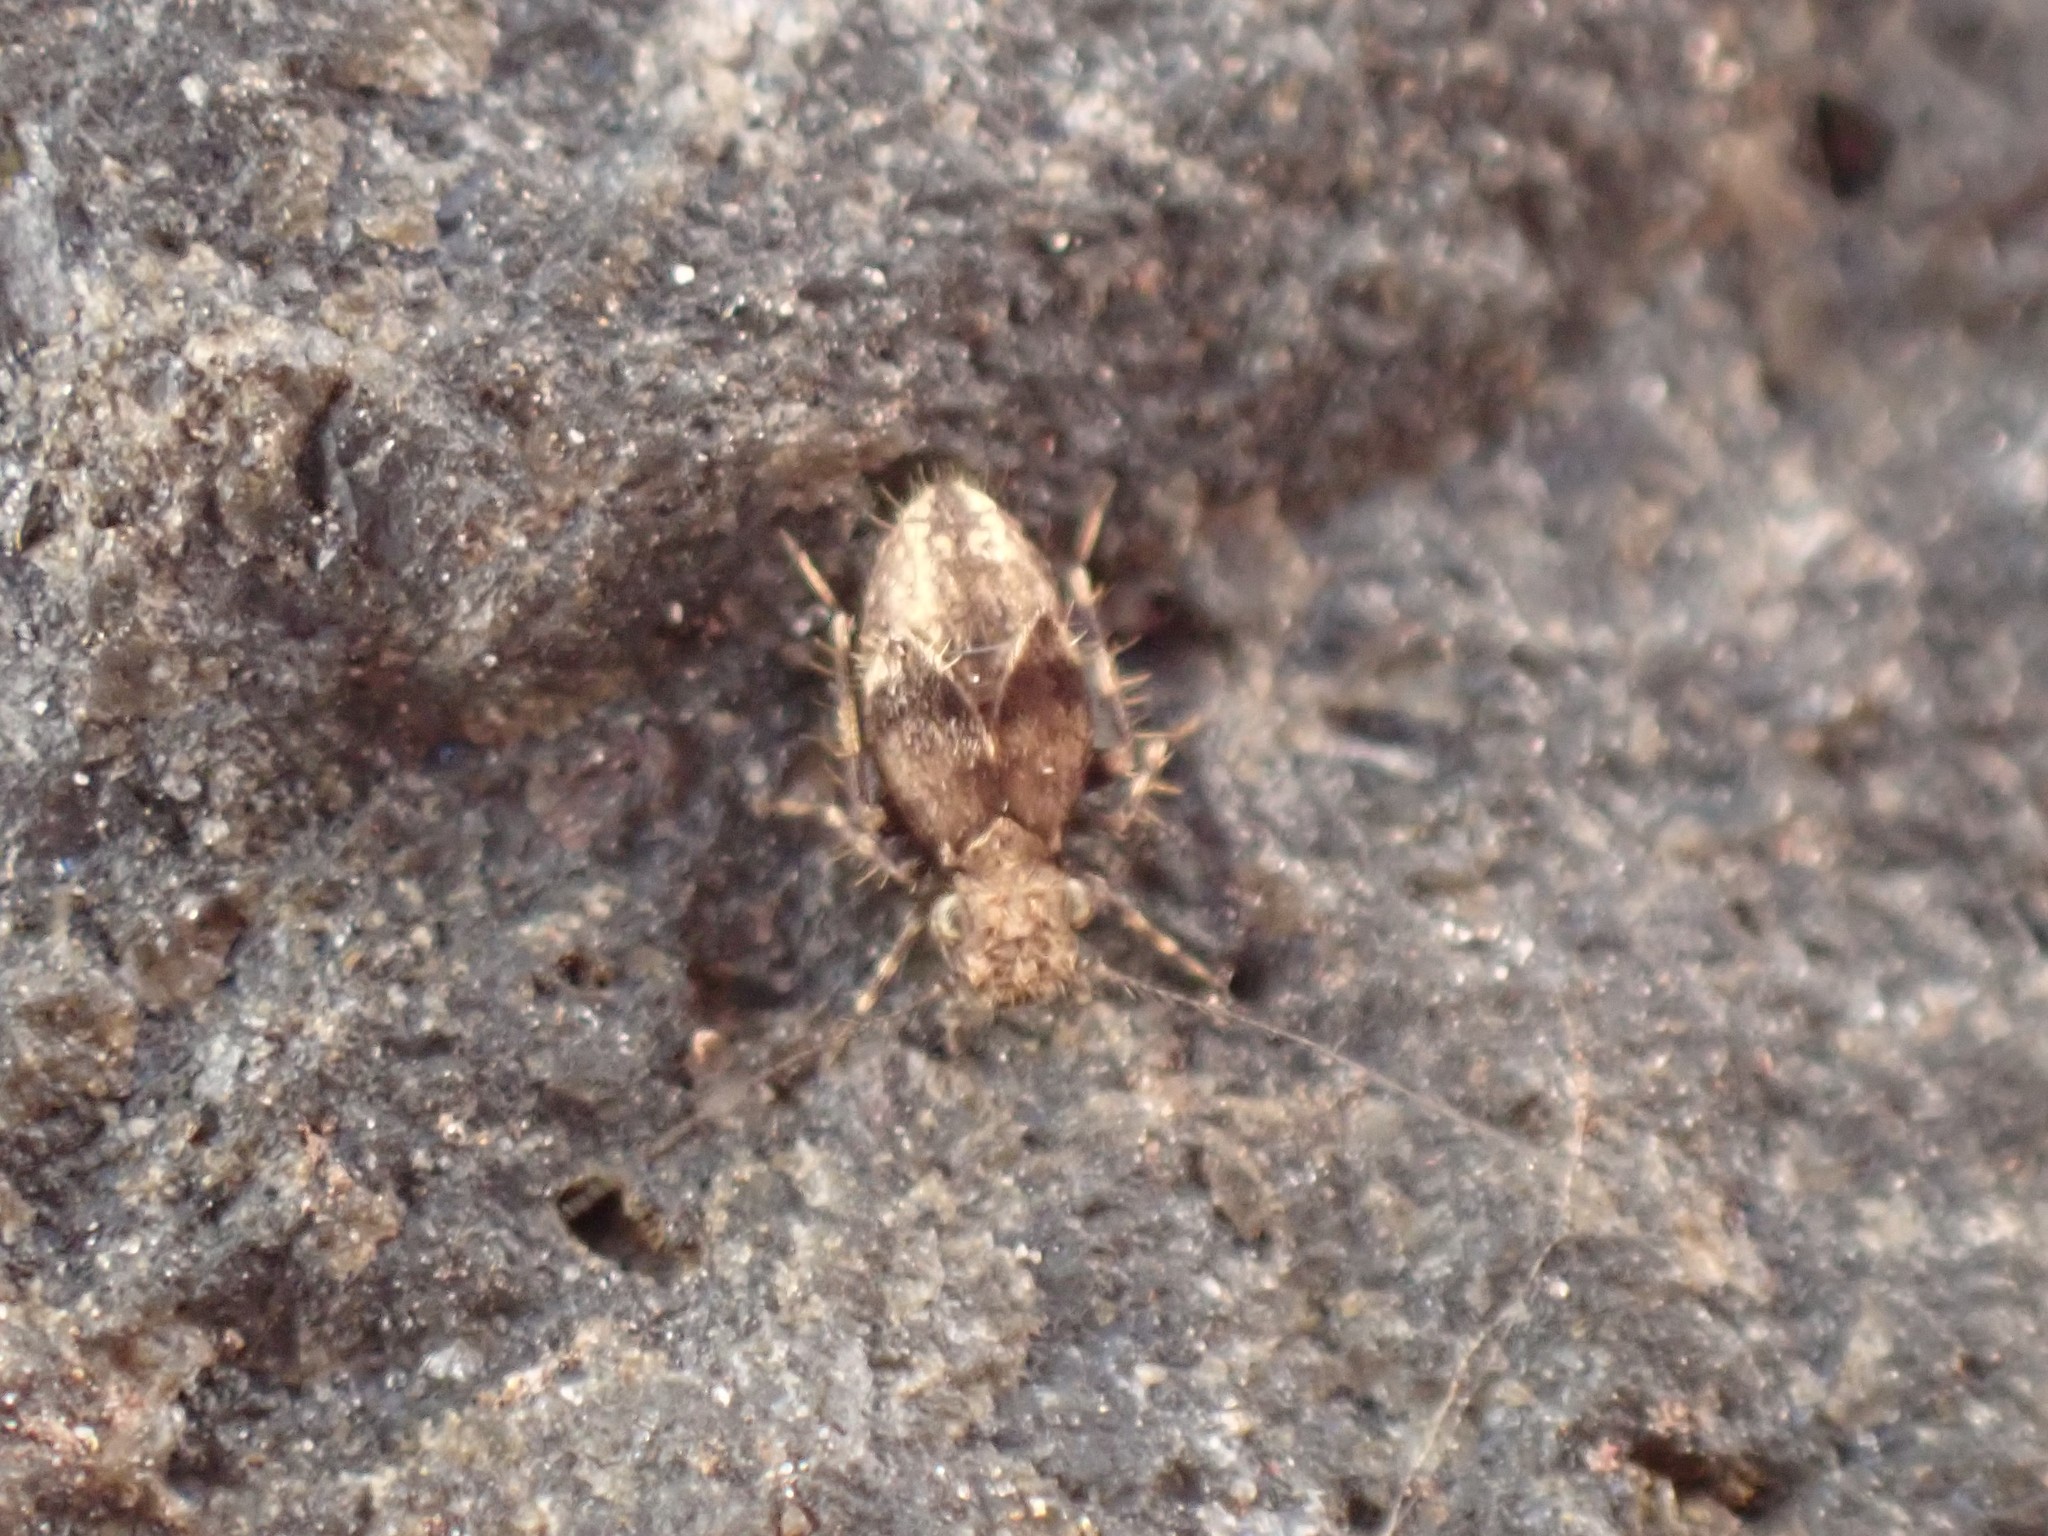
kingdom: Animalia
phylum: Arthropoda
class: Insecta
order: Psocodea
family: Lepidopsocidae
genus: Pteroxanium
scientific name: Pteroxanium kelloggi
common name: Bark lice
